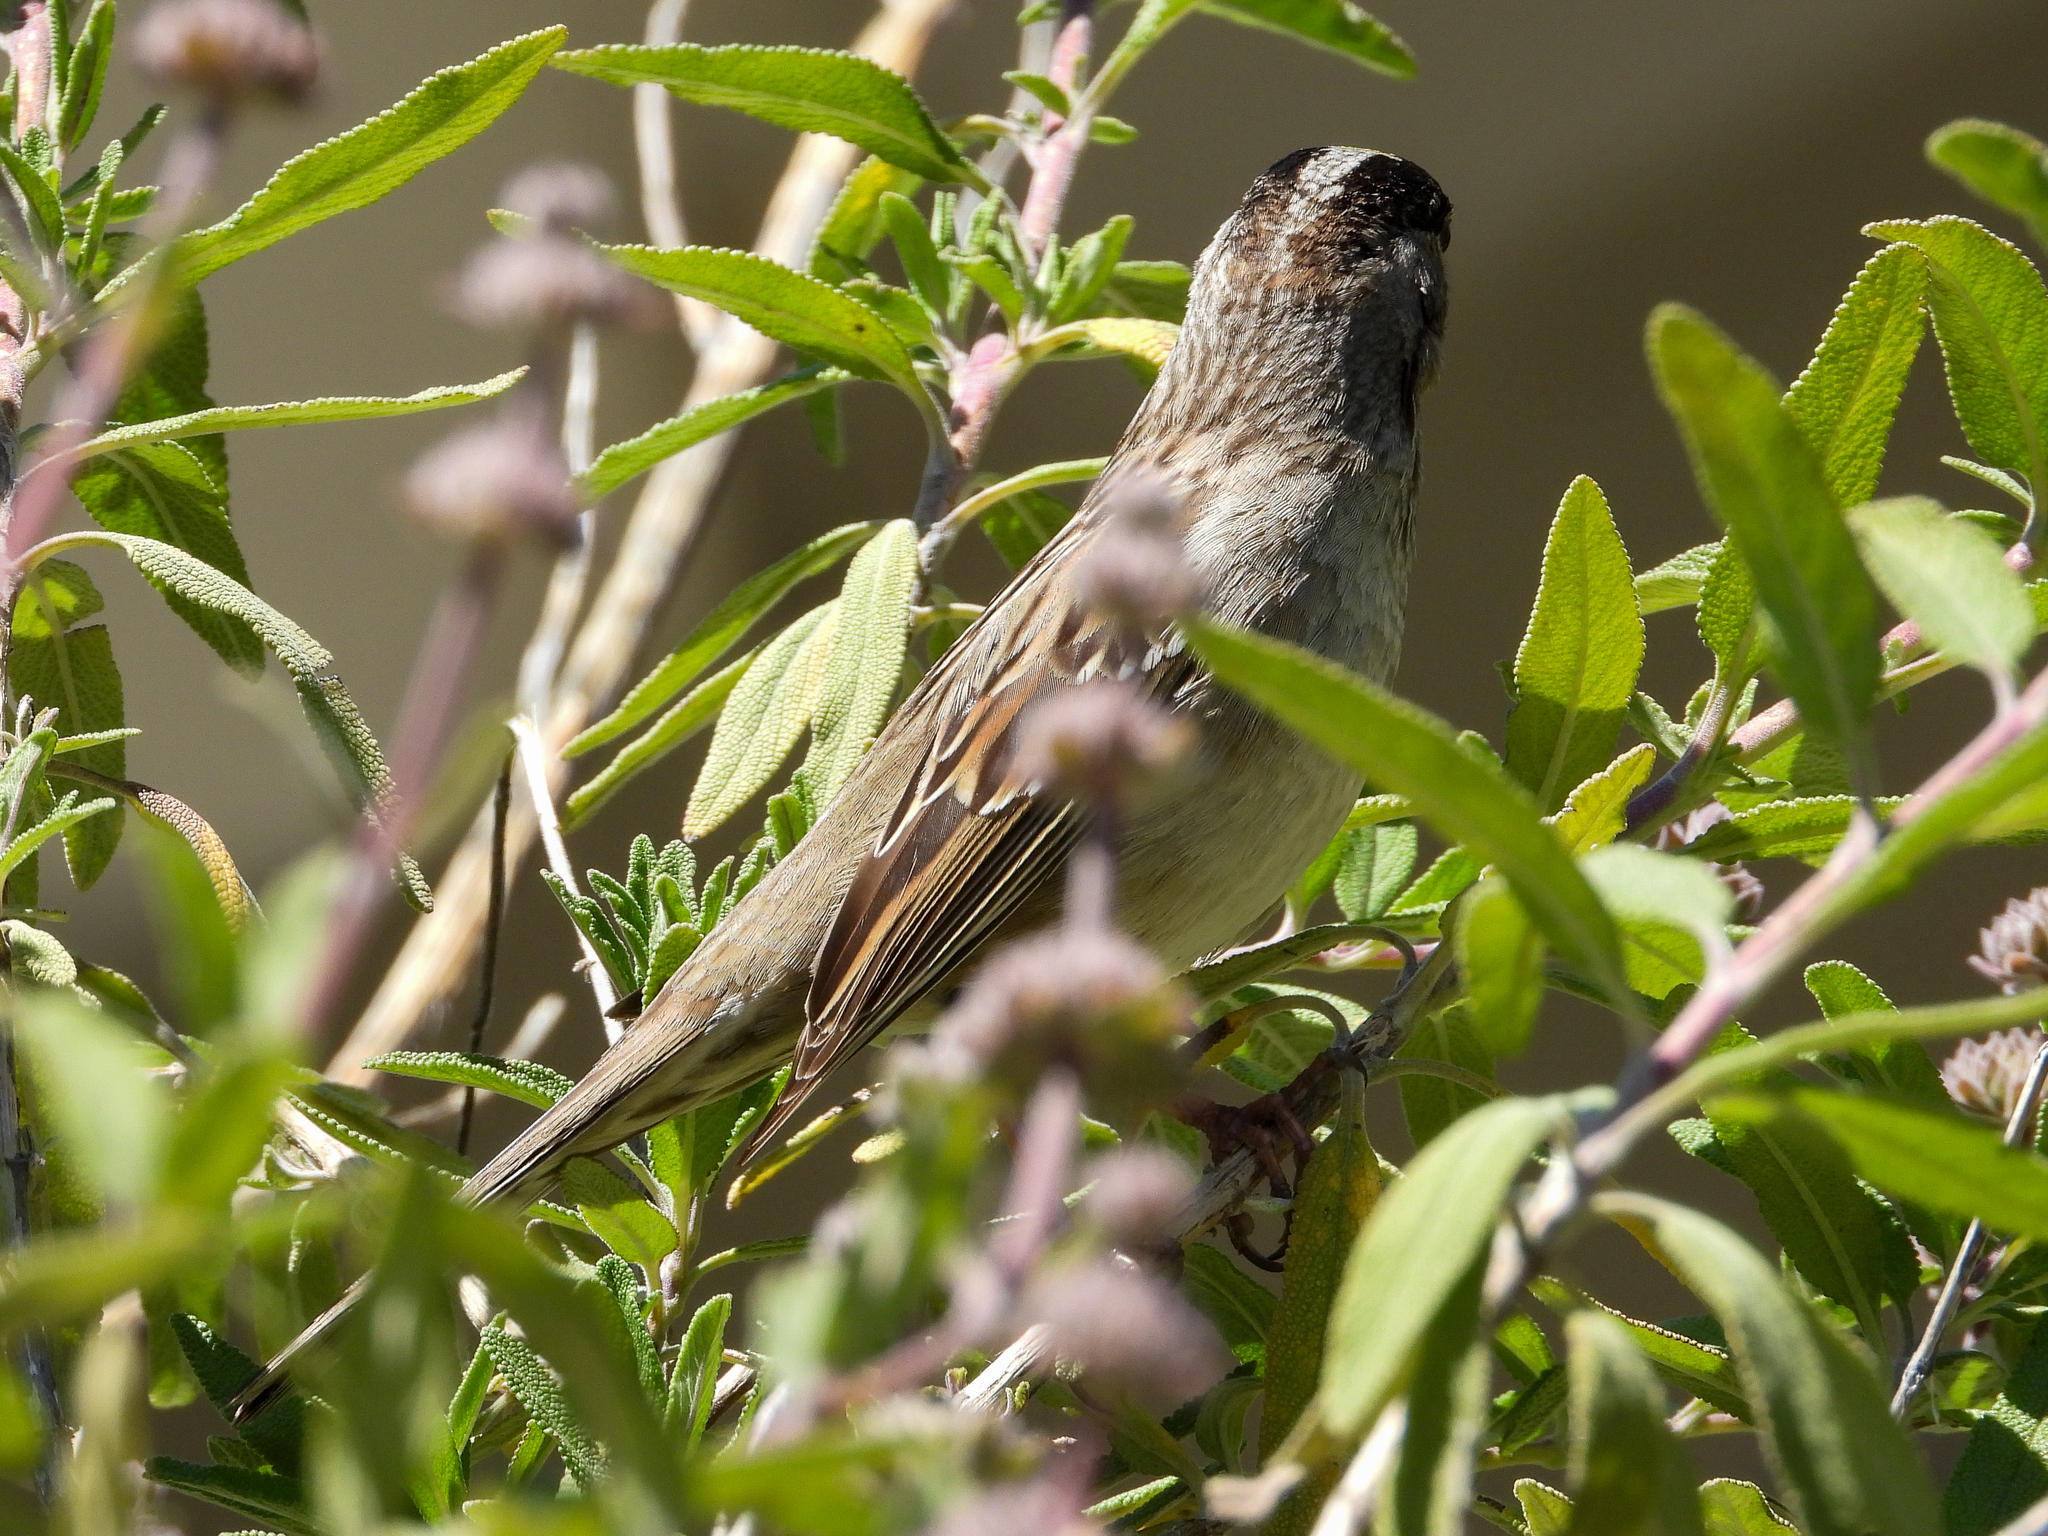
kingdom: Animalia
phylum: Chordata
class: Aves
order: Passeriformes
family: Passerellidae
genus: Zonotrichia
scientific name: Zonotrichia atricapilla
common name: Golden-crowned sparrow
